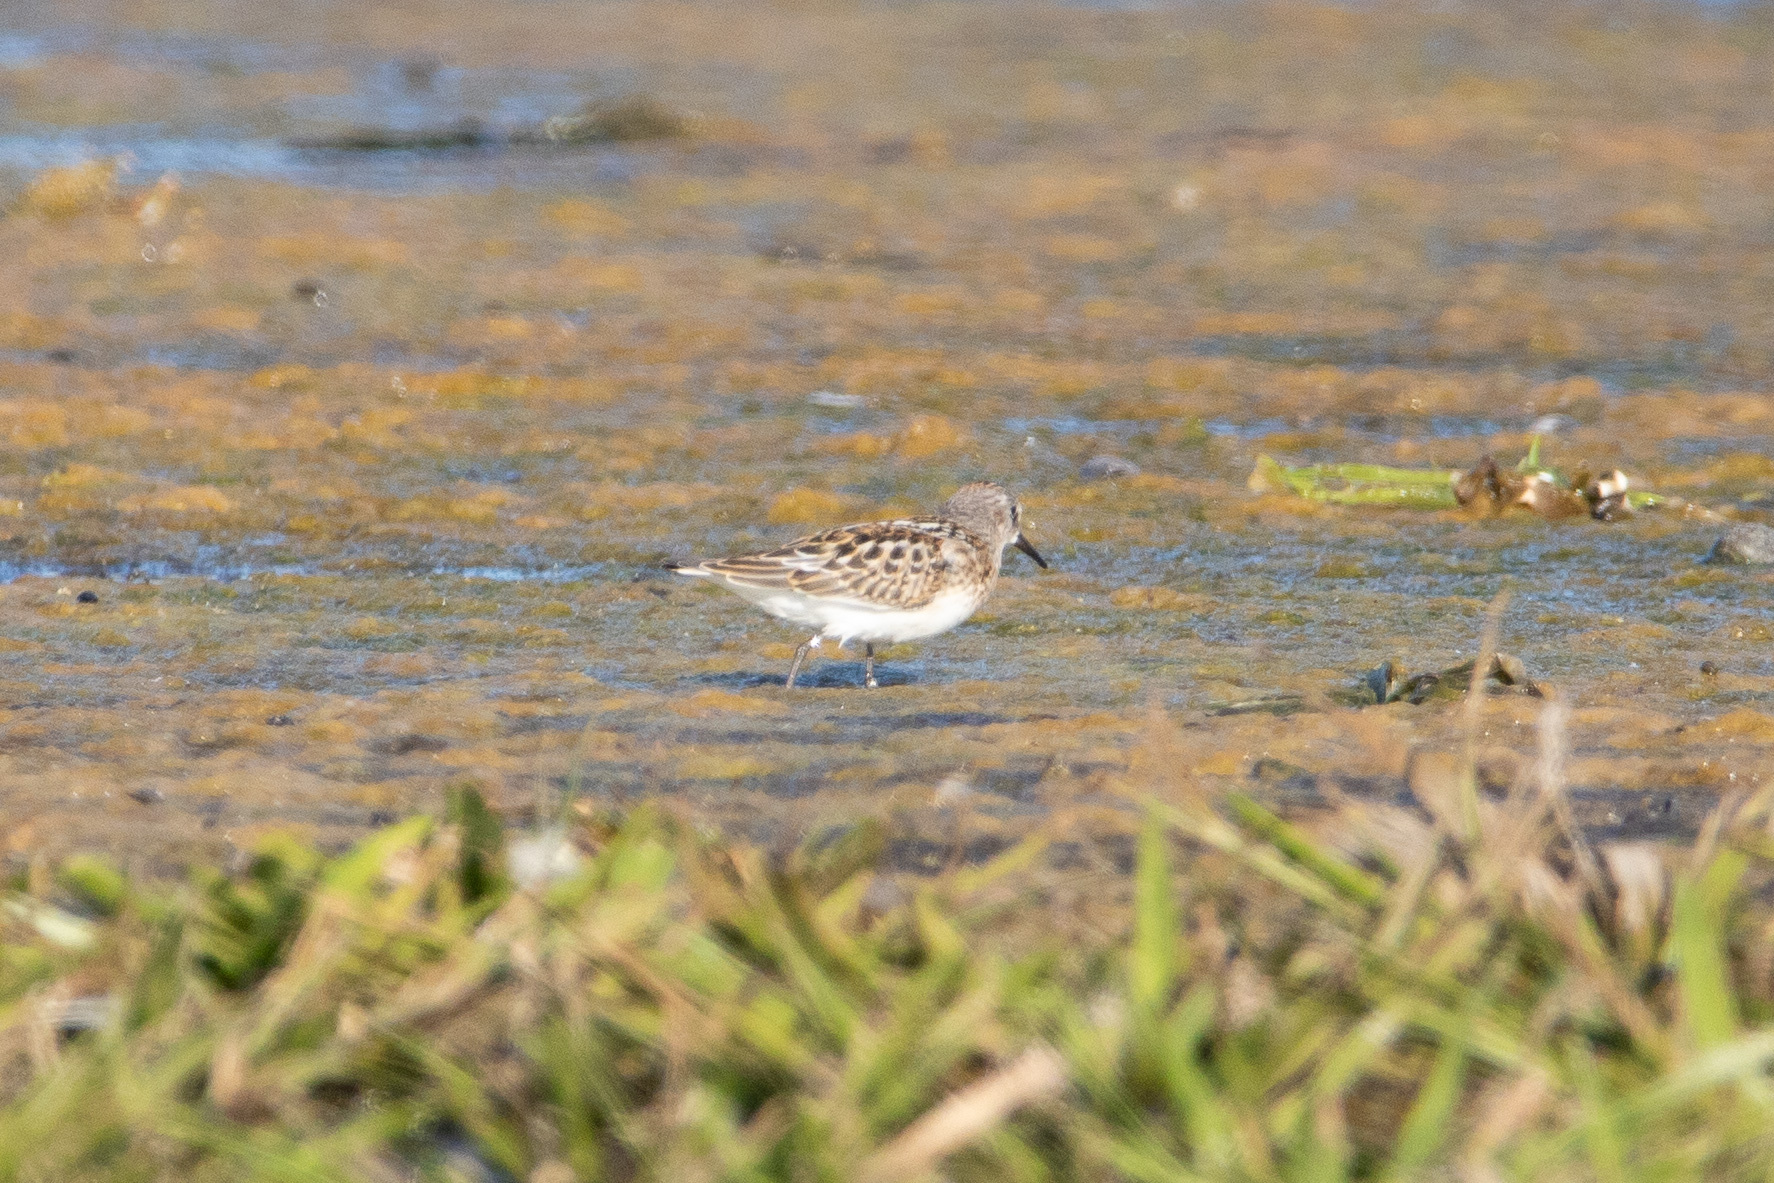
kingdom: Animalia
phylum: Chordata
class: Aves
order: Charadriiformes
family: Scolopacidae
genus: Calidris
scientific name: Calidris minuta
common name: Little stint
